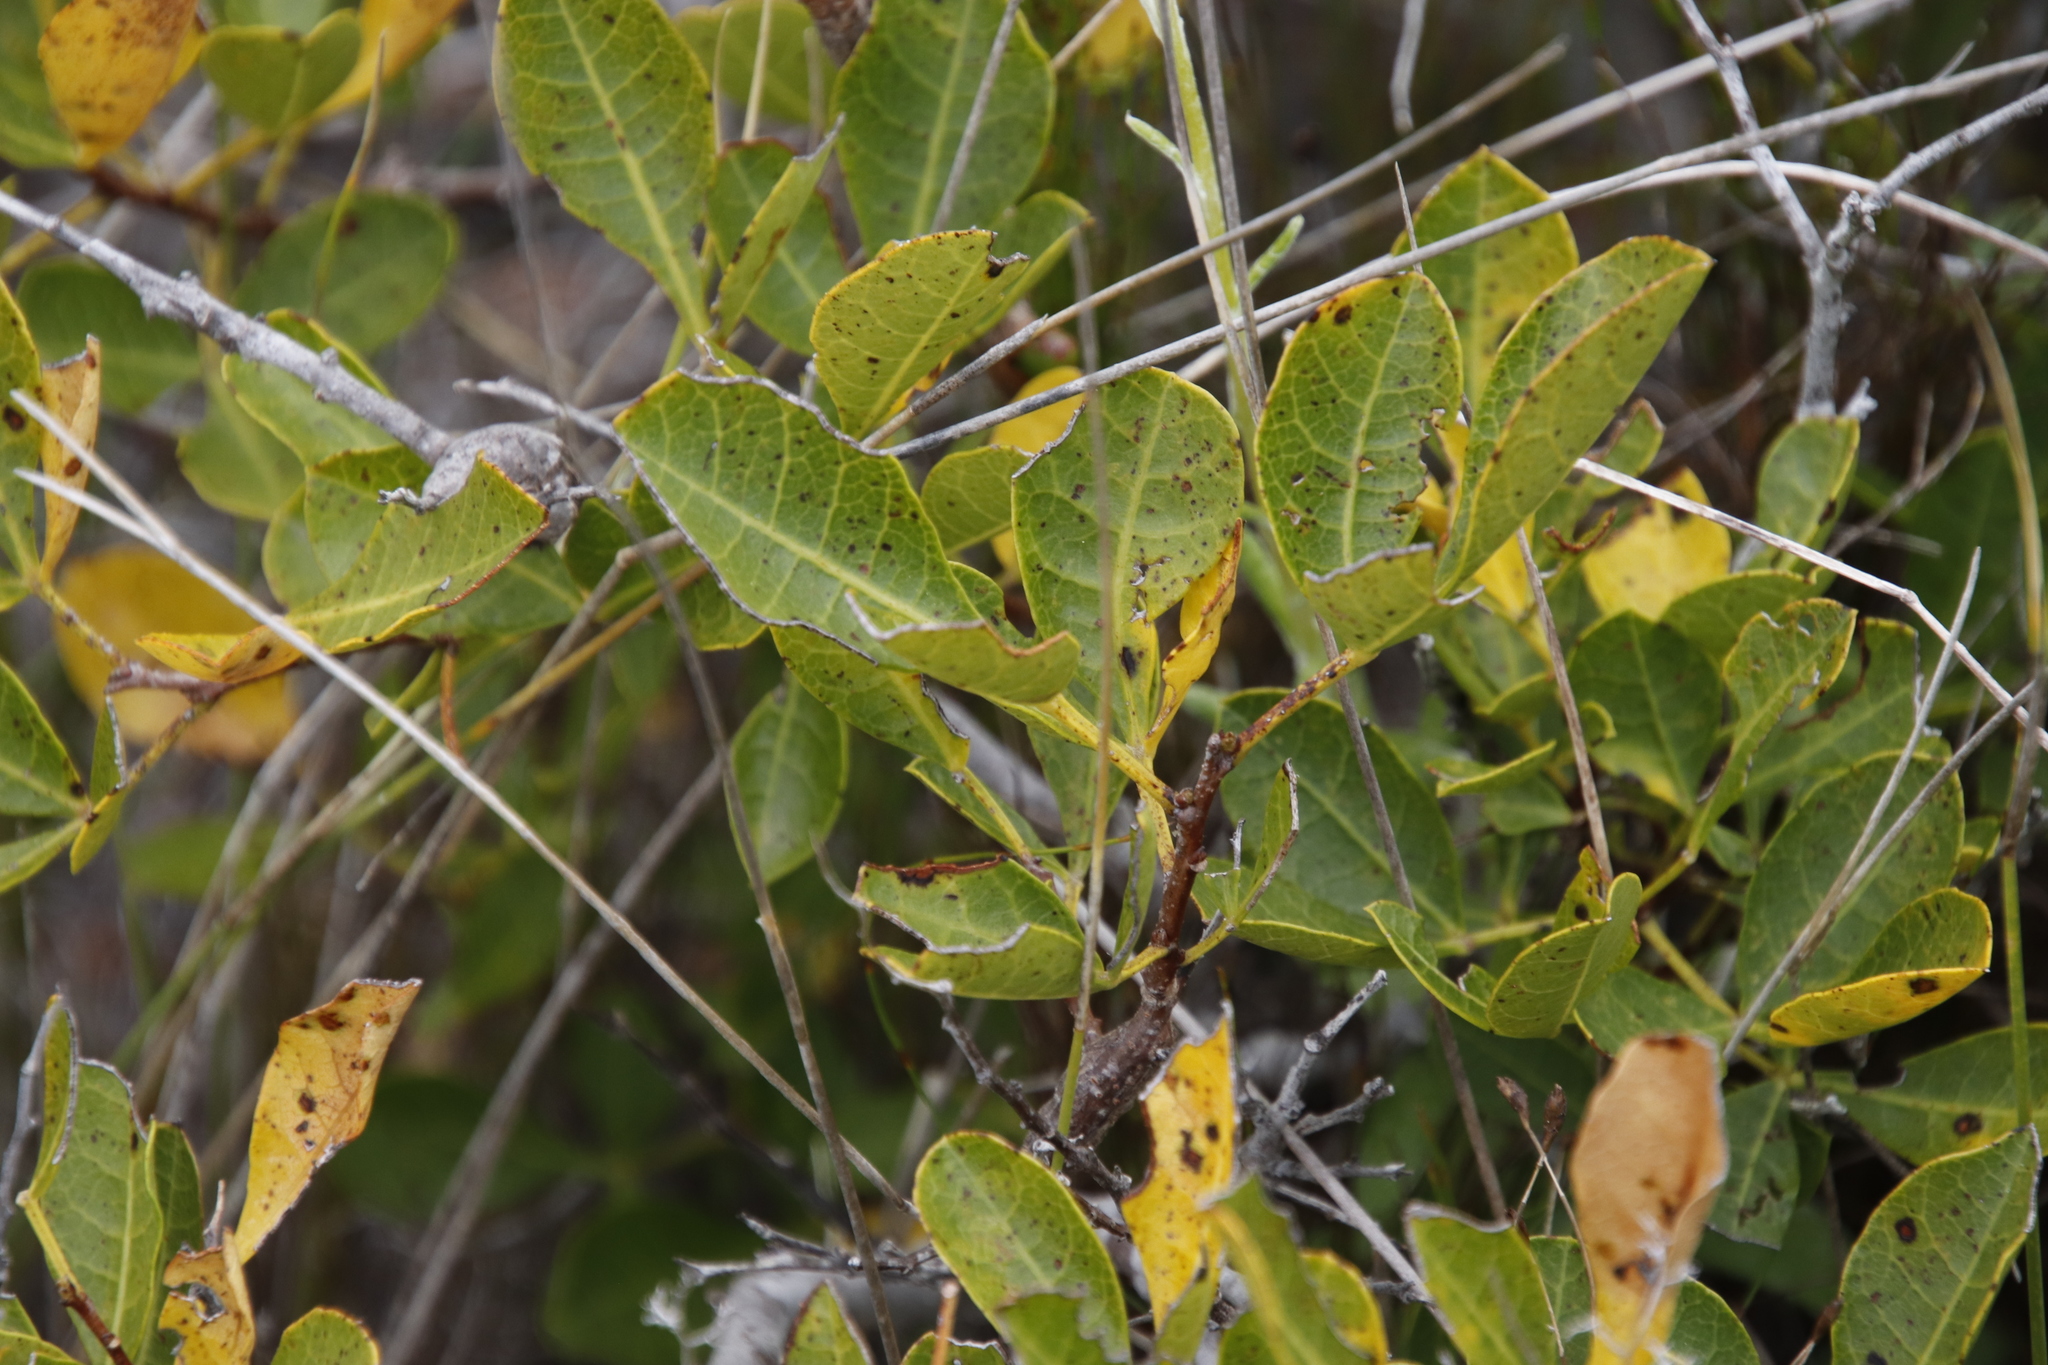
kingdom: Plantae
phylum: Tracheophyta
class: Magnoliopsida
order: Sapindales
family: Anacardiaceae
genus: Searsia
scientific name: Searsia laevigata
